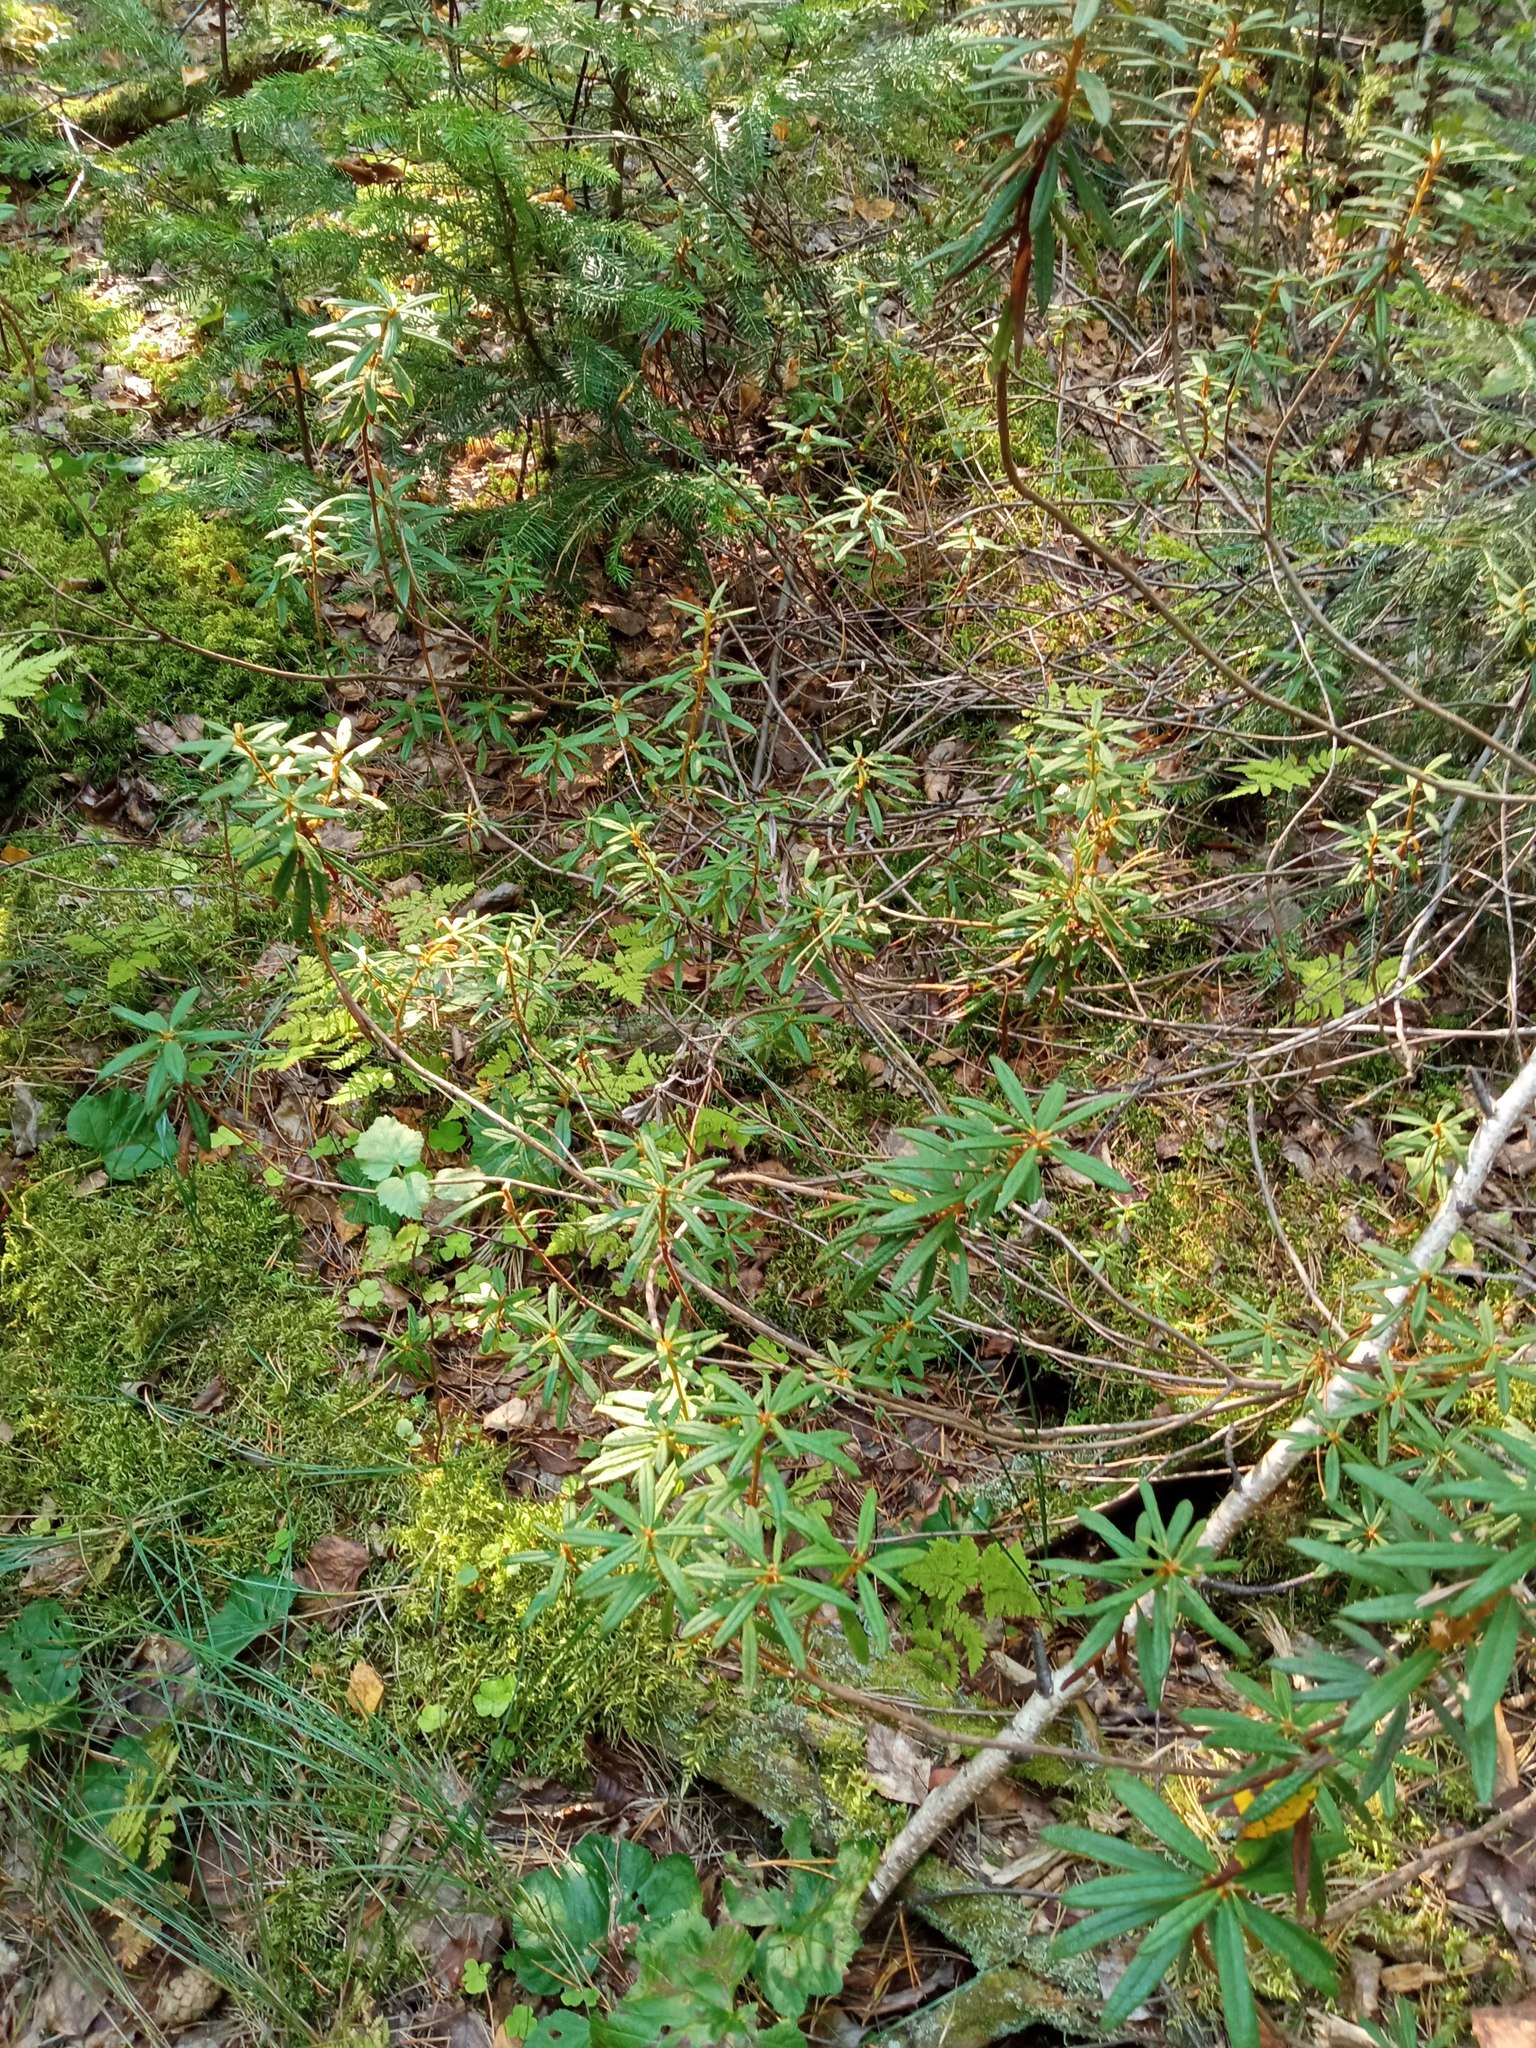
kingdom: Plantae
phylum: Tracheophyta
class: Magnoliopsida
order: Ericales
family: Ericaceae
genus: Rhododendron
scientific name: Rhododendron tomentosum
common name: Marsh labrador tea
